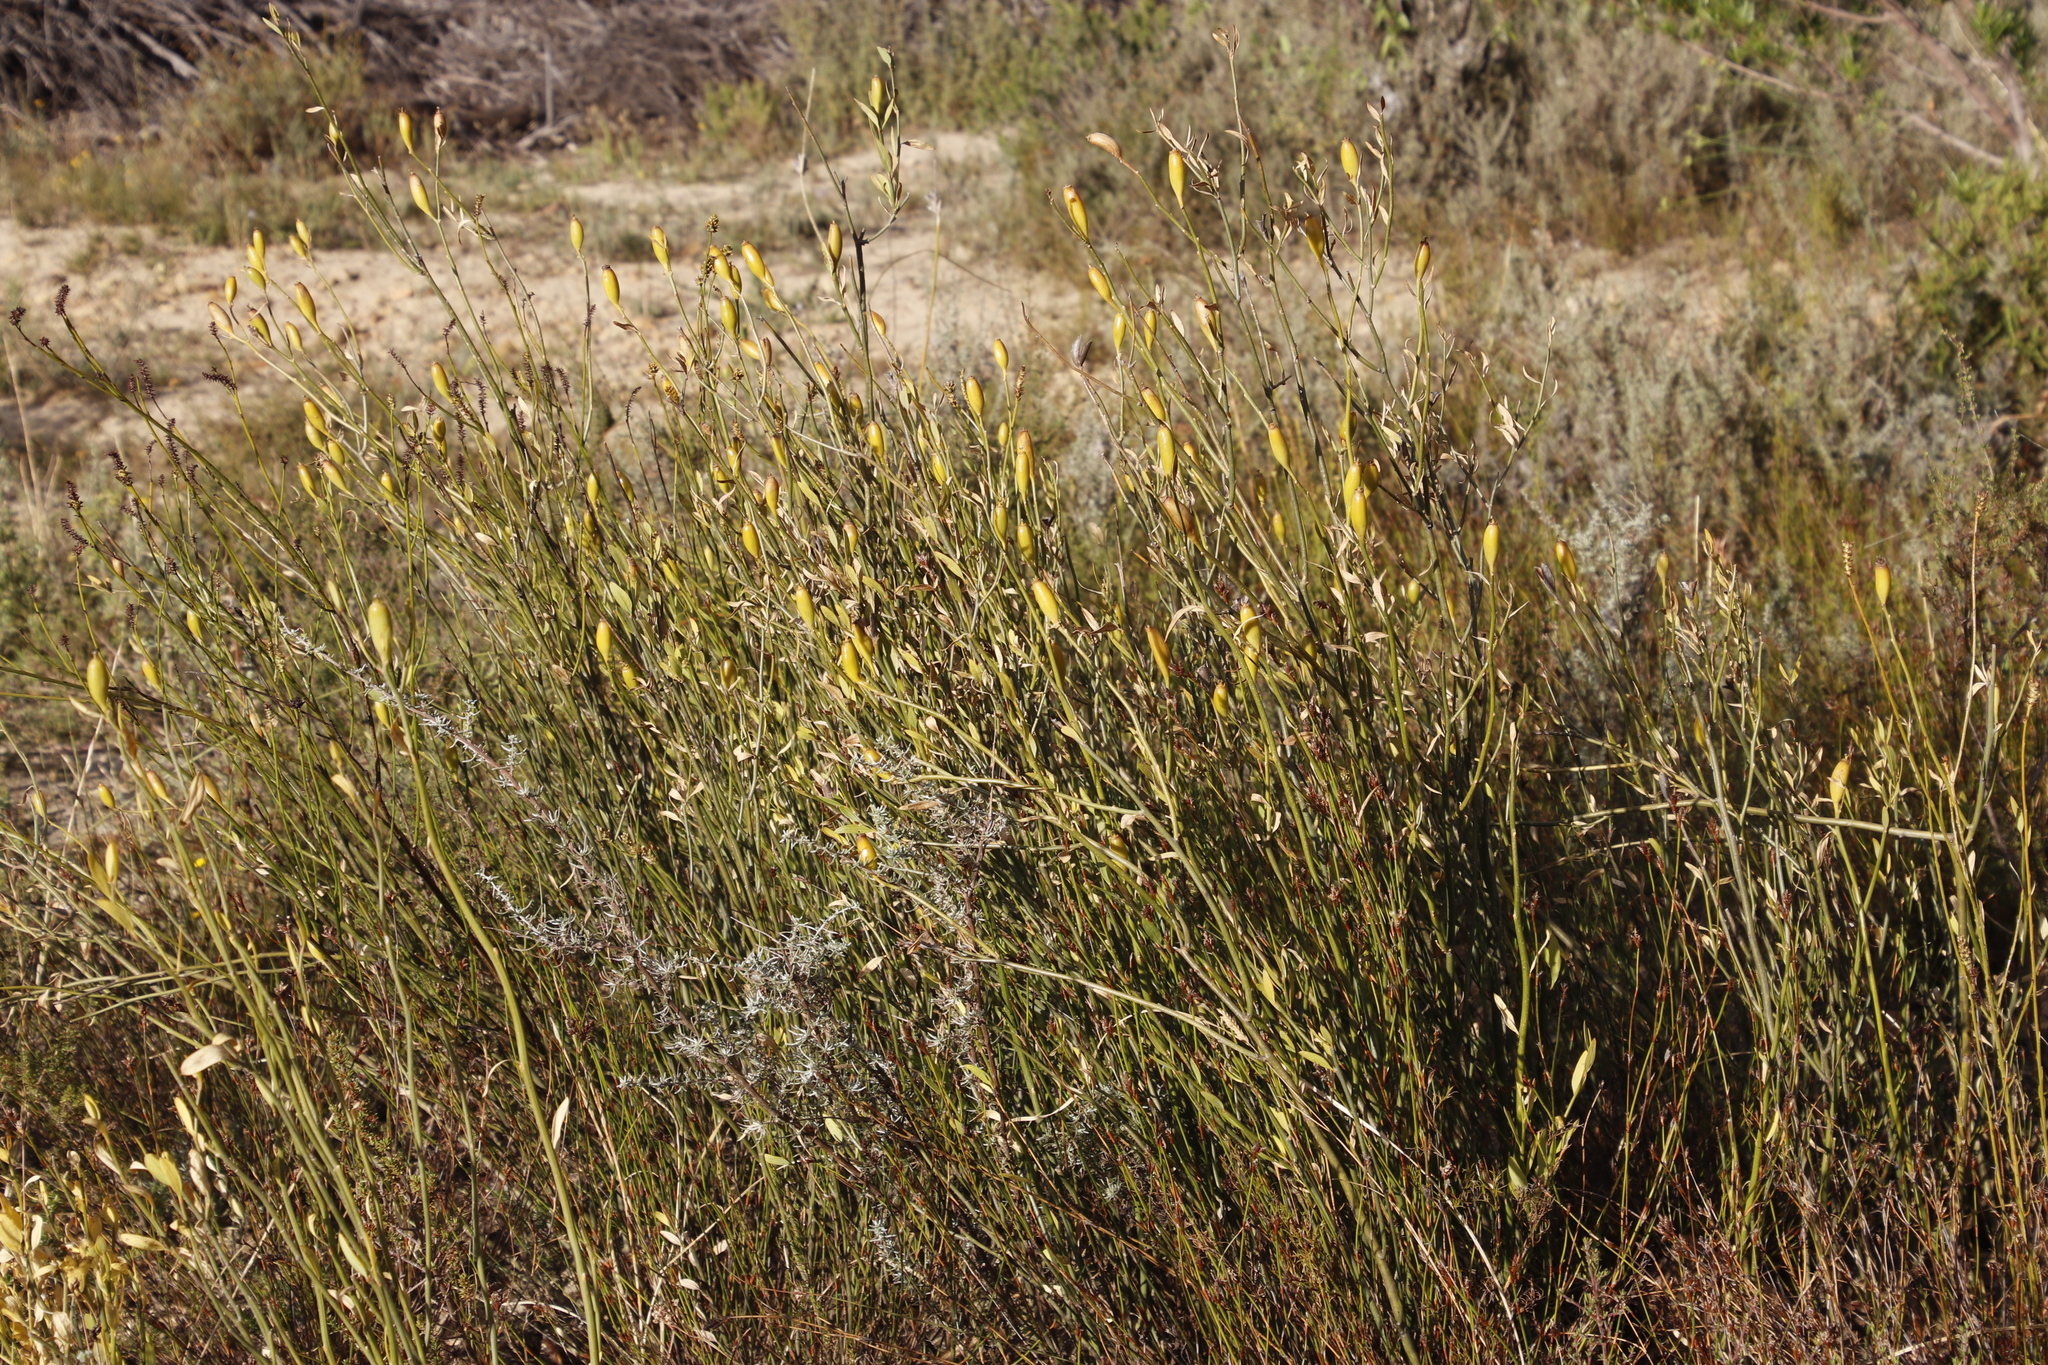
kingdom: Plantae
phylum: Tracheophyta
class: Magnoliopsida
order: Solanales
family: Montiniaceae
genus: Montinia
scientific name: Montinia caryophyllacea
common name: Wild clove-bush
